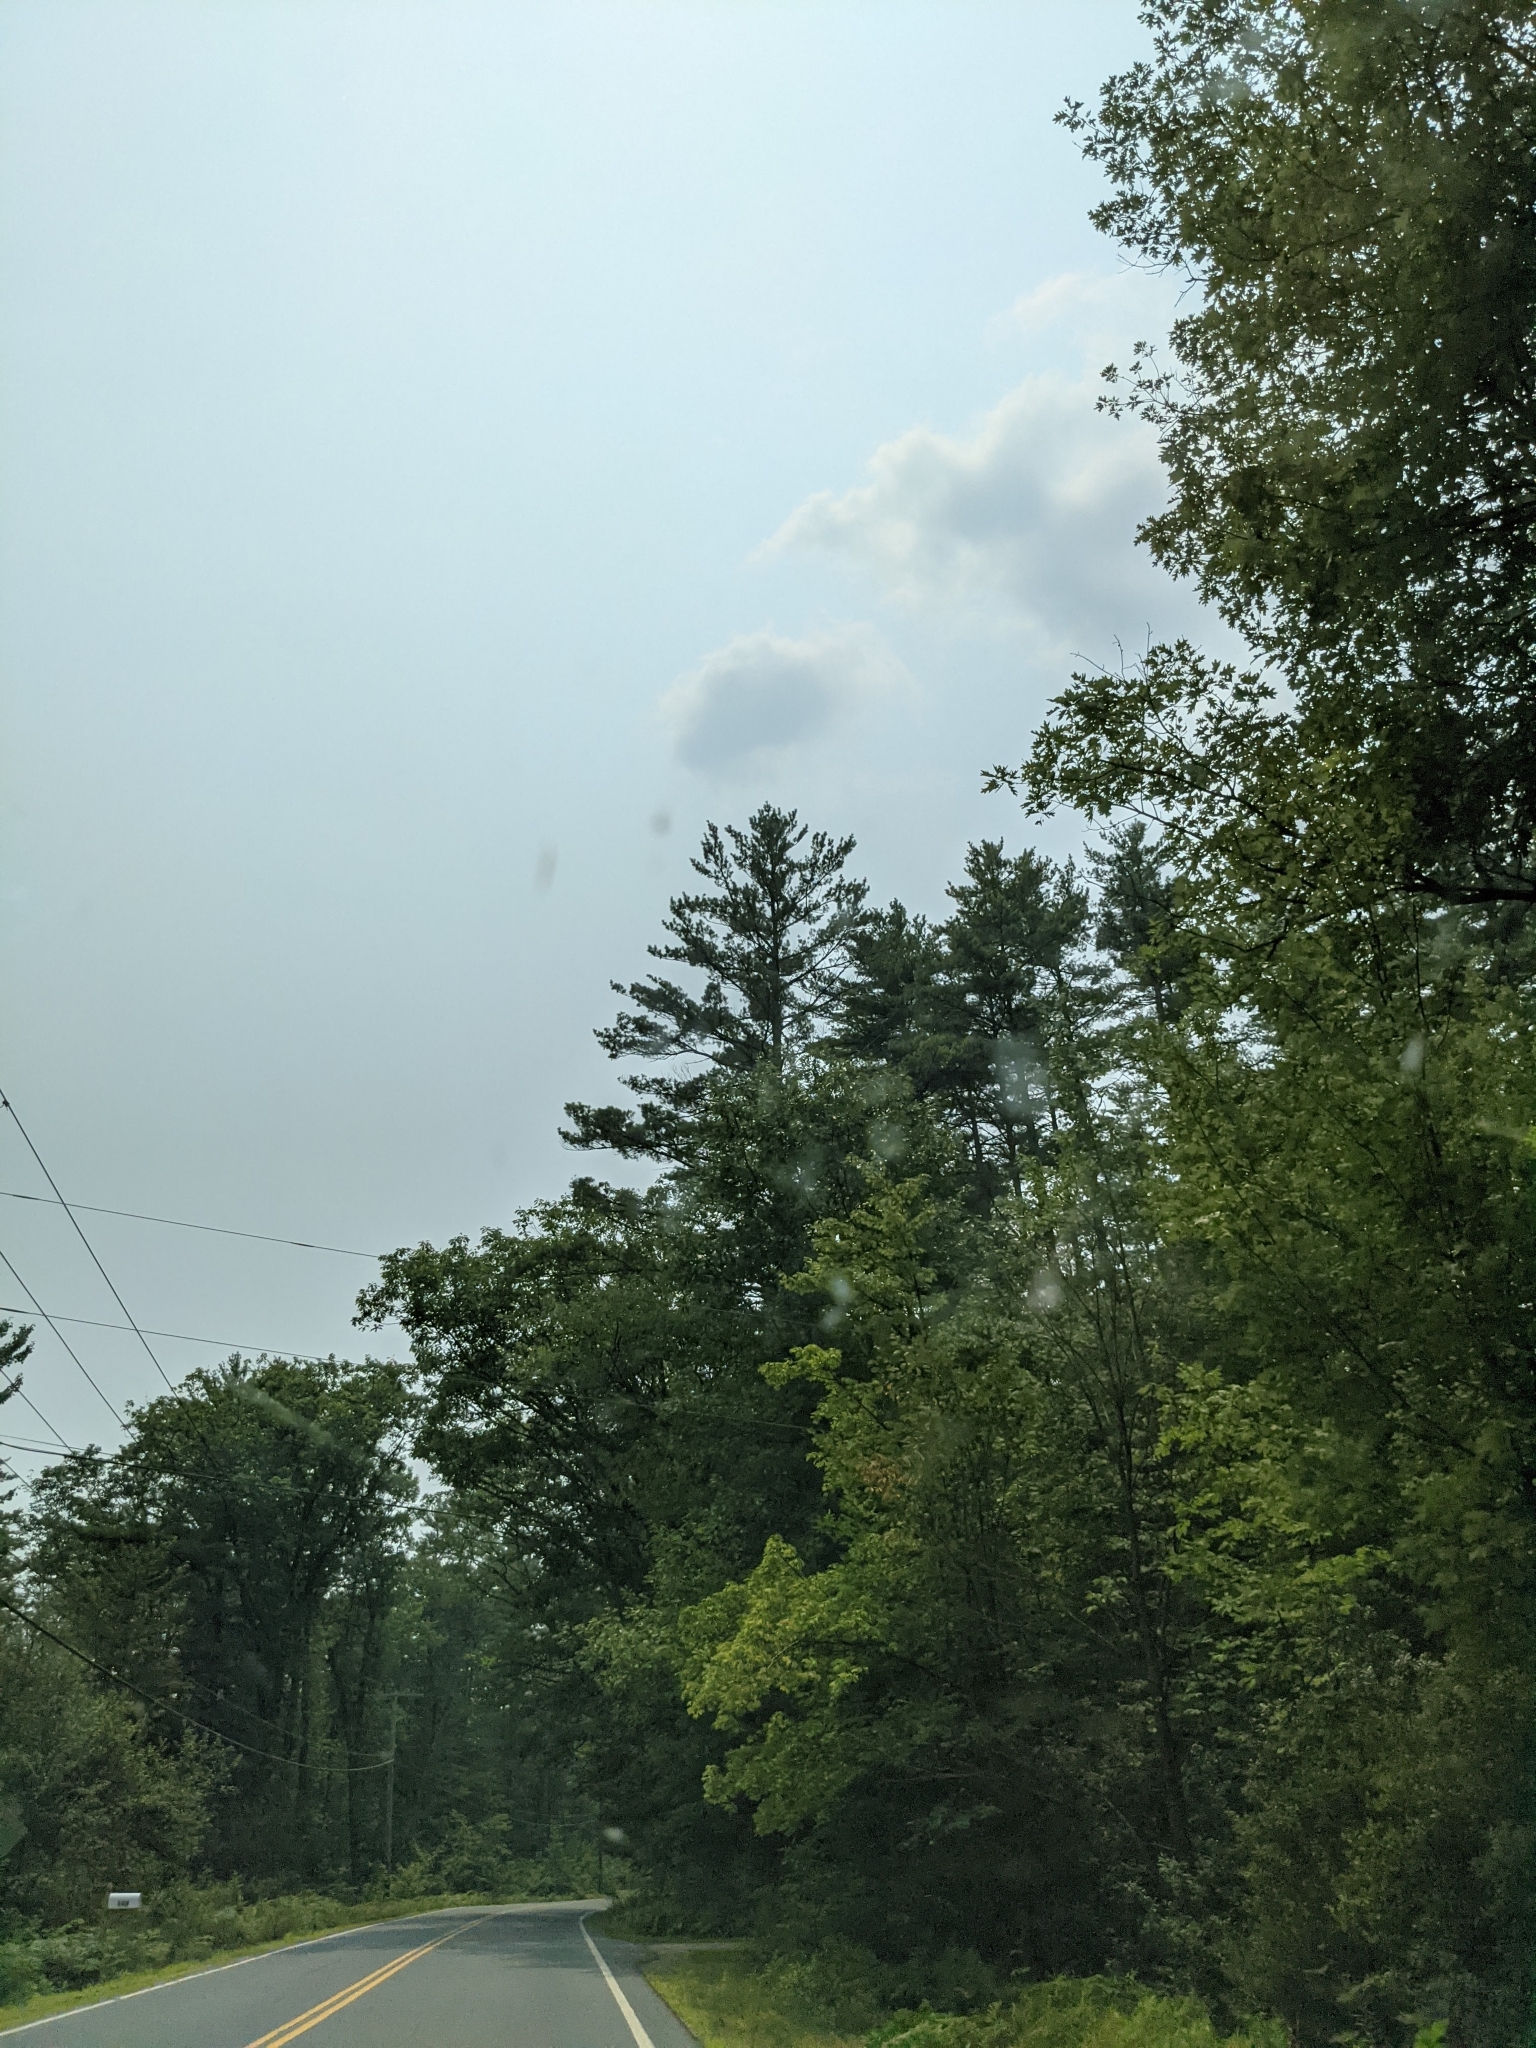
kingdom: Plantae
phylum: Tracheophyta
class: Pinopsida
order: Pinales
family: Pinaceae
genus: Pinus
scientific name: Pinus strobus
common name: Weymouth pine
